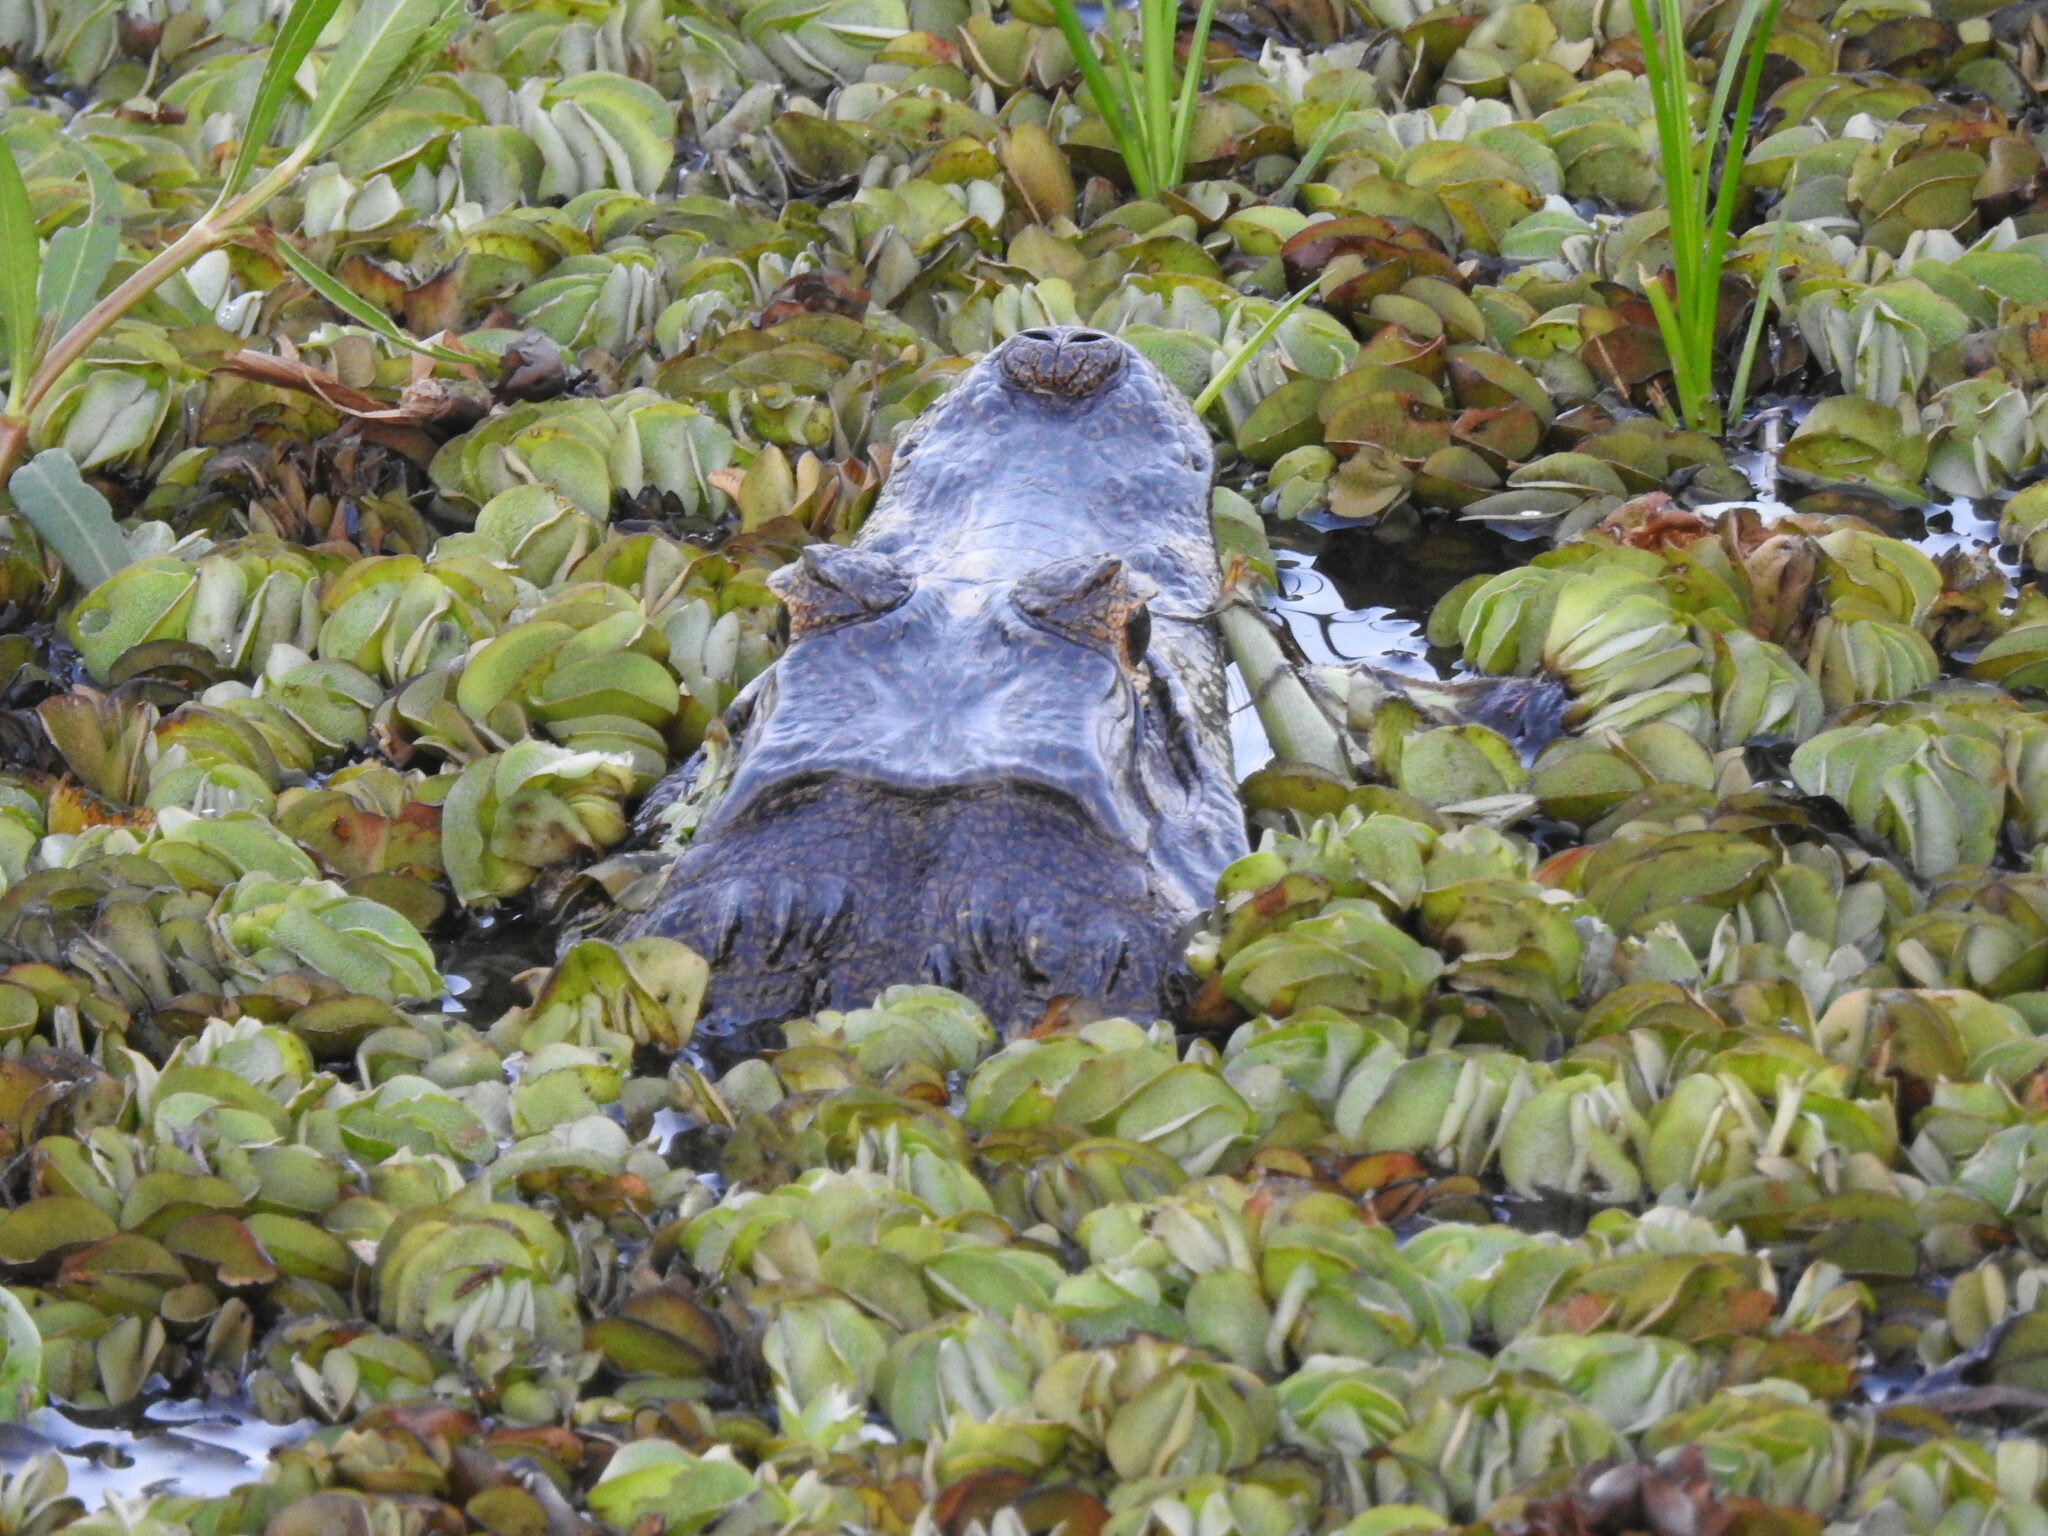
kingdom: Animalia
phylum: Chordata
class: Crocodylia
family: Alligatoridae
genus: Caiman
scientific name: Caiman yacare
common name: Yacare caiman
